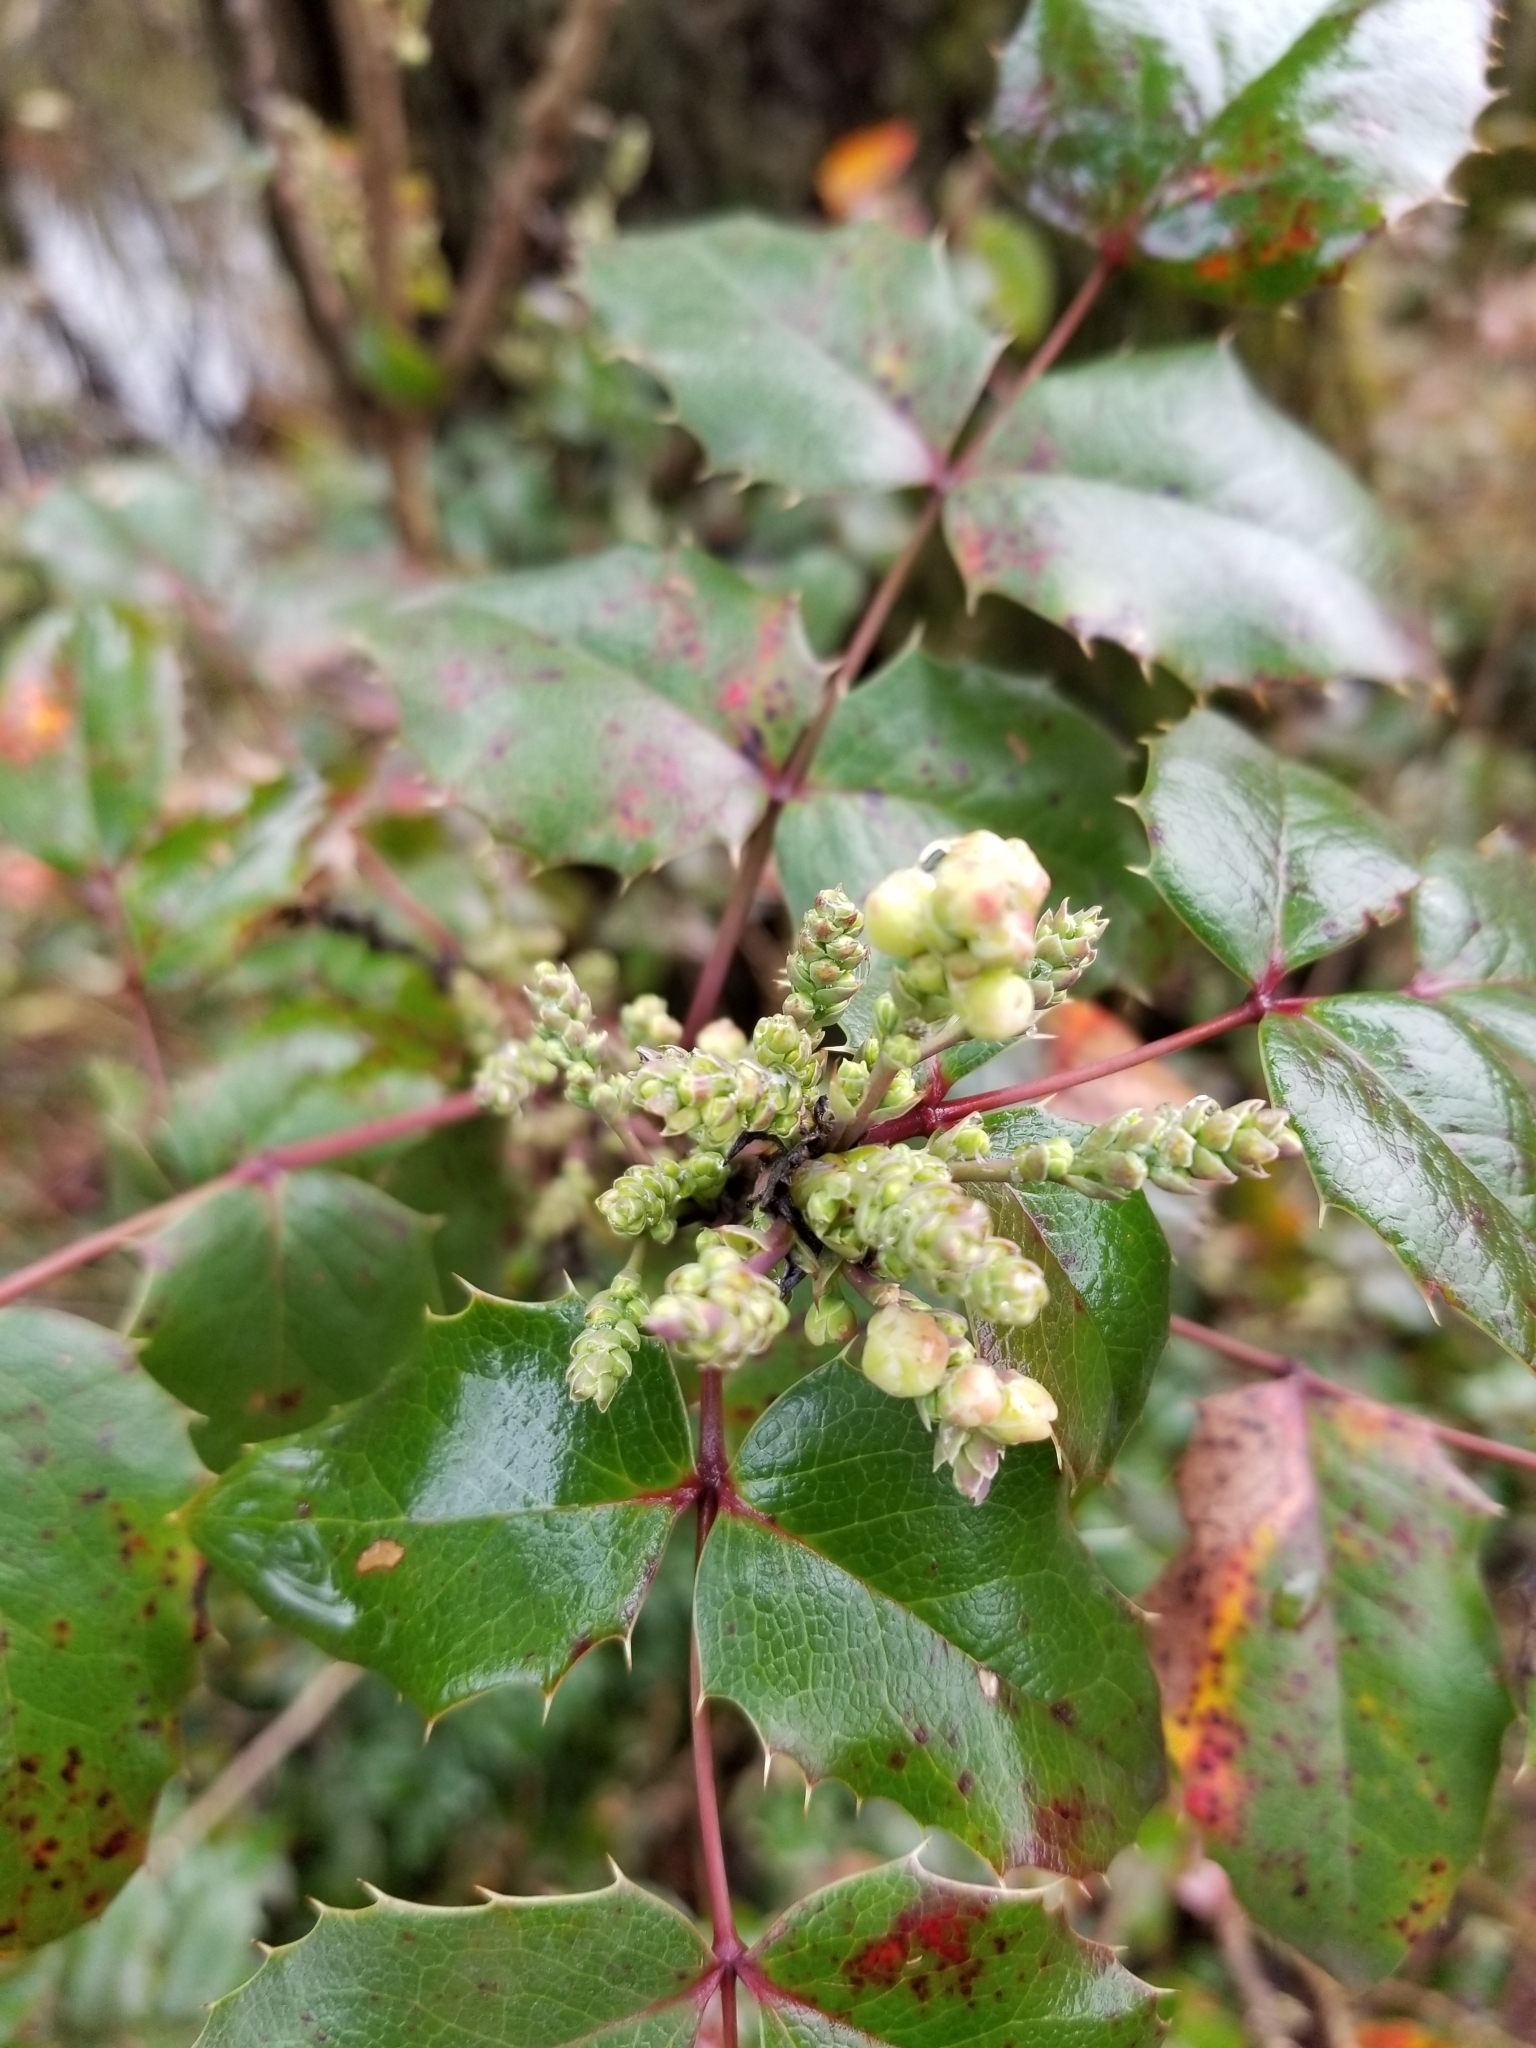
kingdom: Plantae
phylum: Tracheophyta
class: Magnoliopsida
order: Ranunculales
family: Berberidaceae
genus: Mahonia
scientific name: Mahonia aquifolium
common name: Oregon-grape
